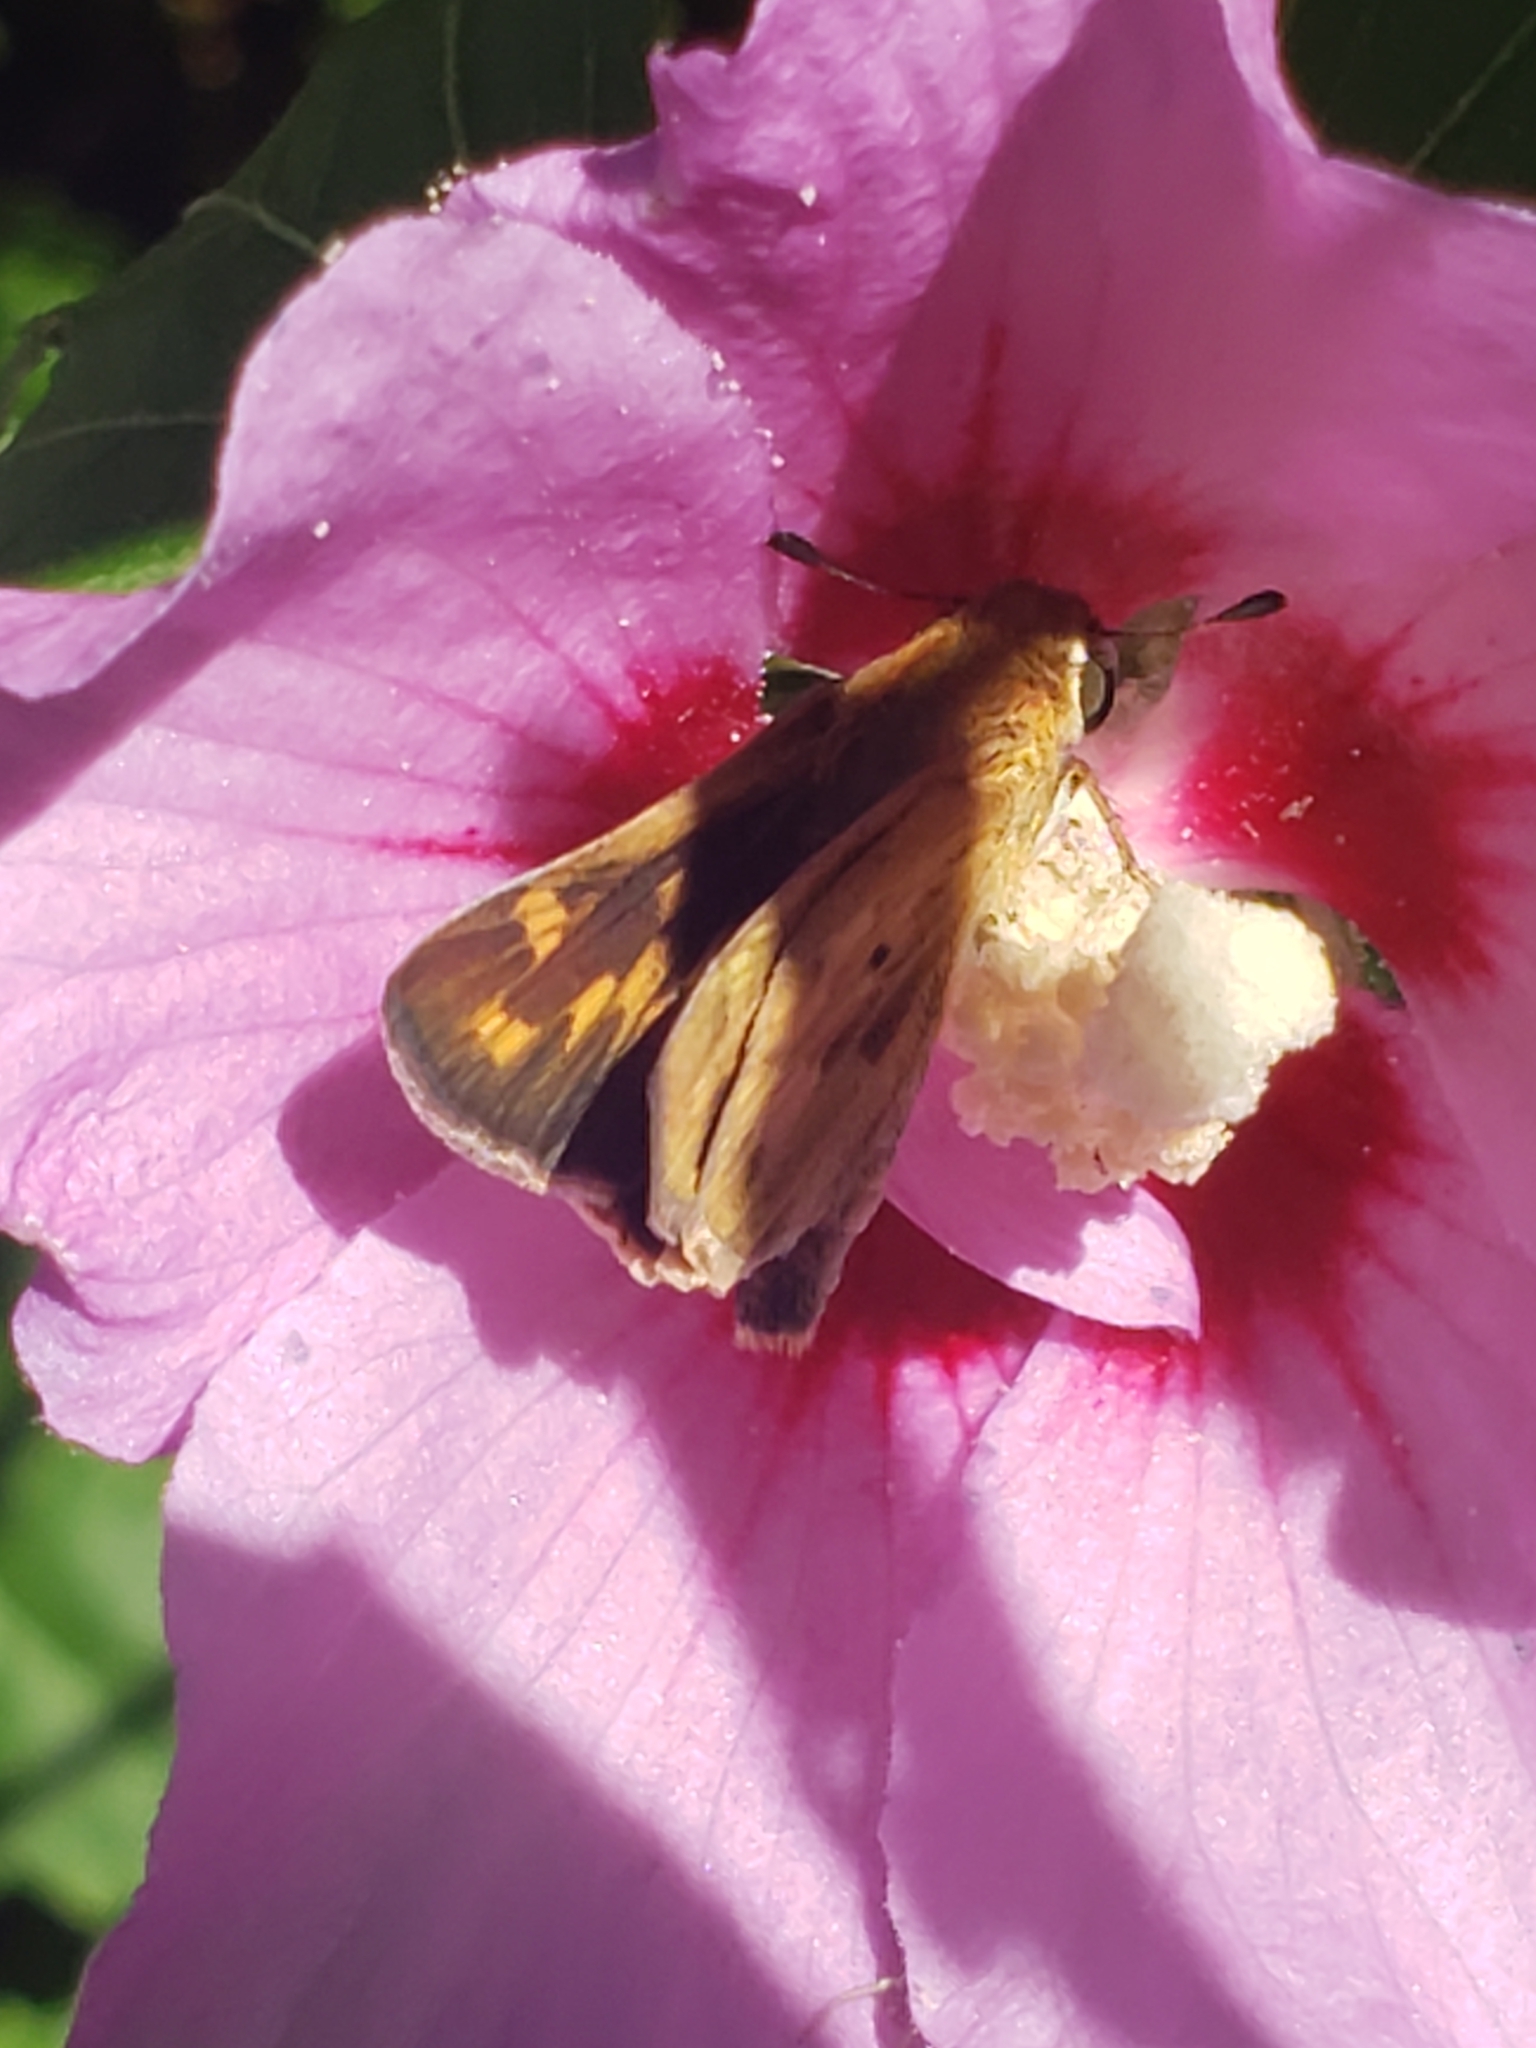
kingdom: Animalia
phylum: Arthropoda
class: Insecta
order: Lepidoptera
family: Hesperiidae
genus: Hylephila
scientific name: Hylephila phyleus
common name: Fiery skipper
